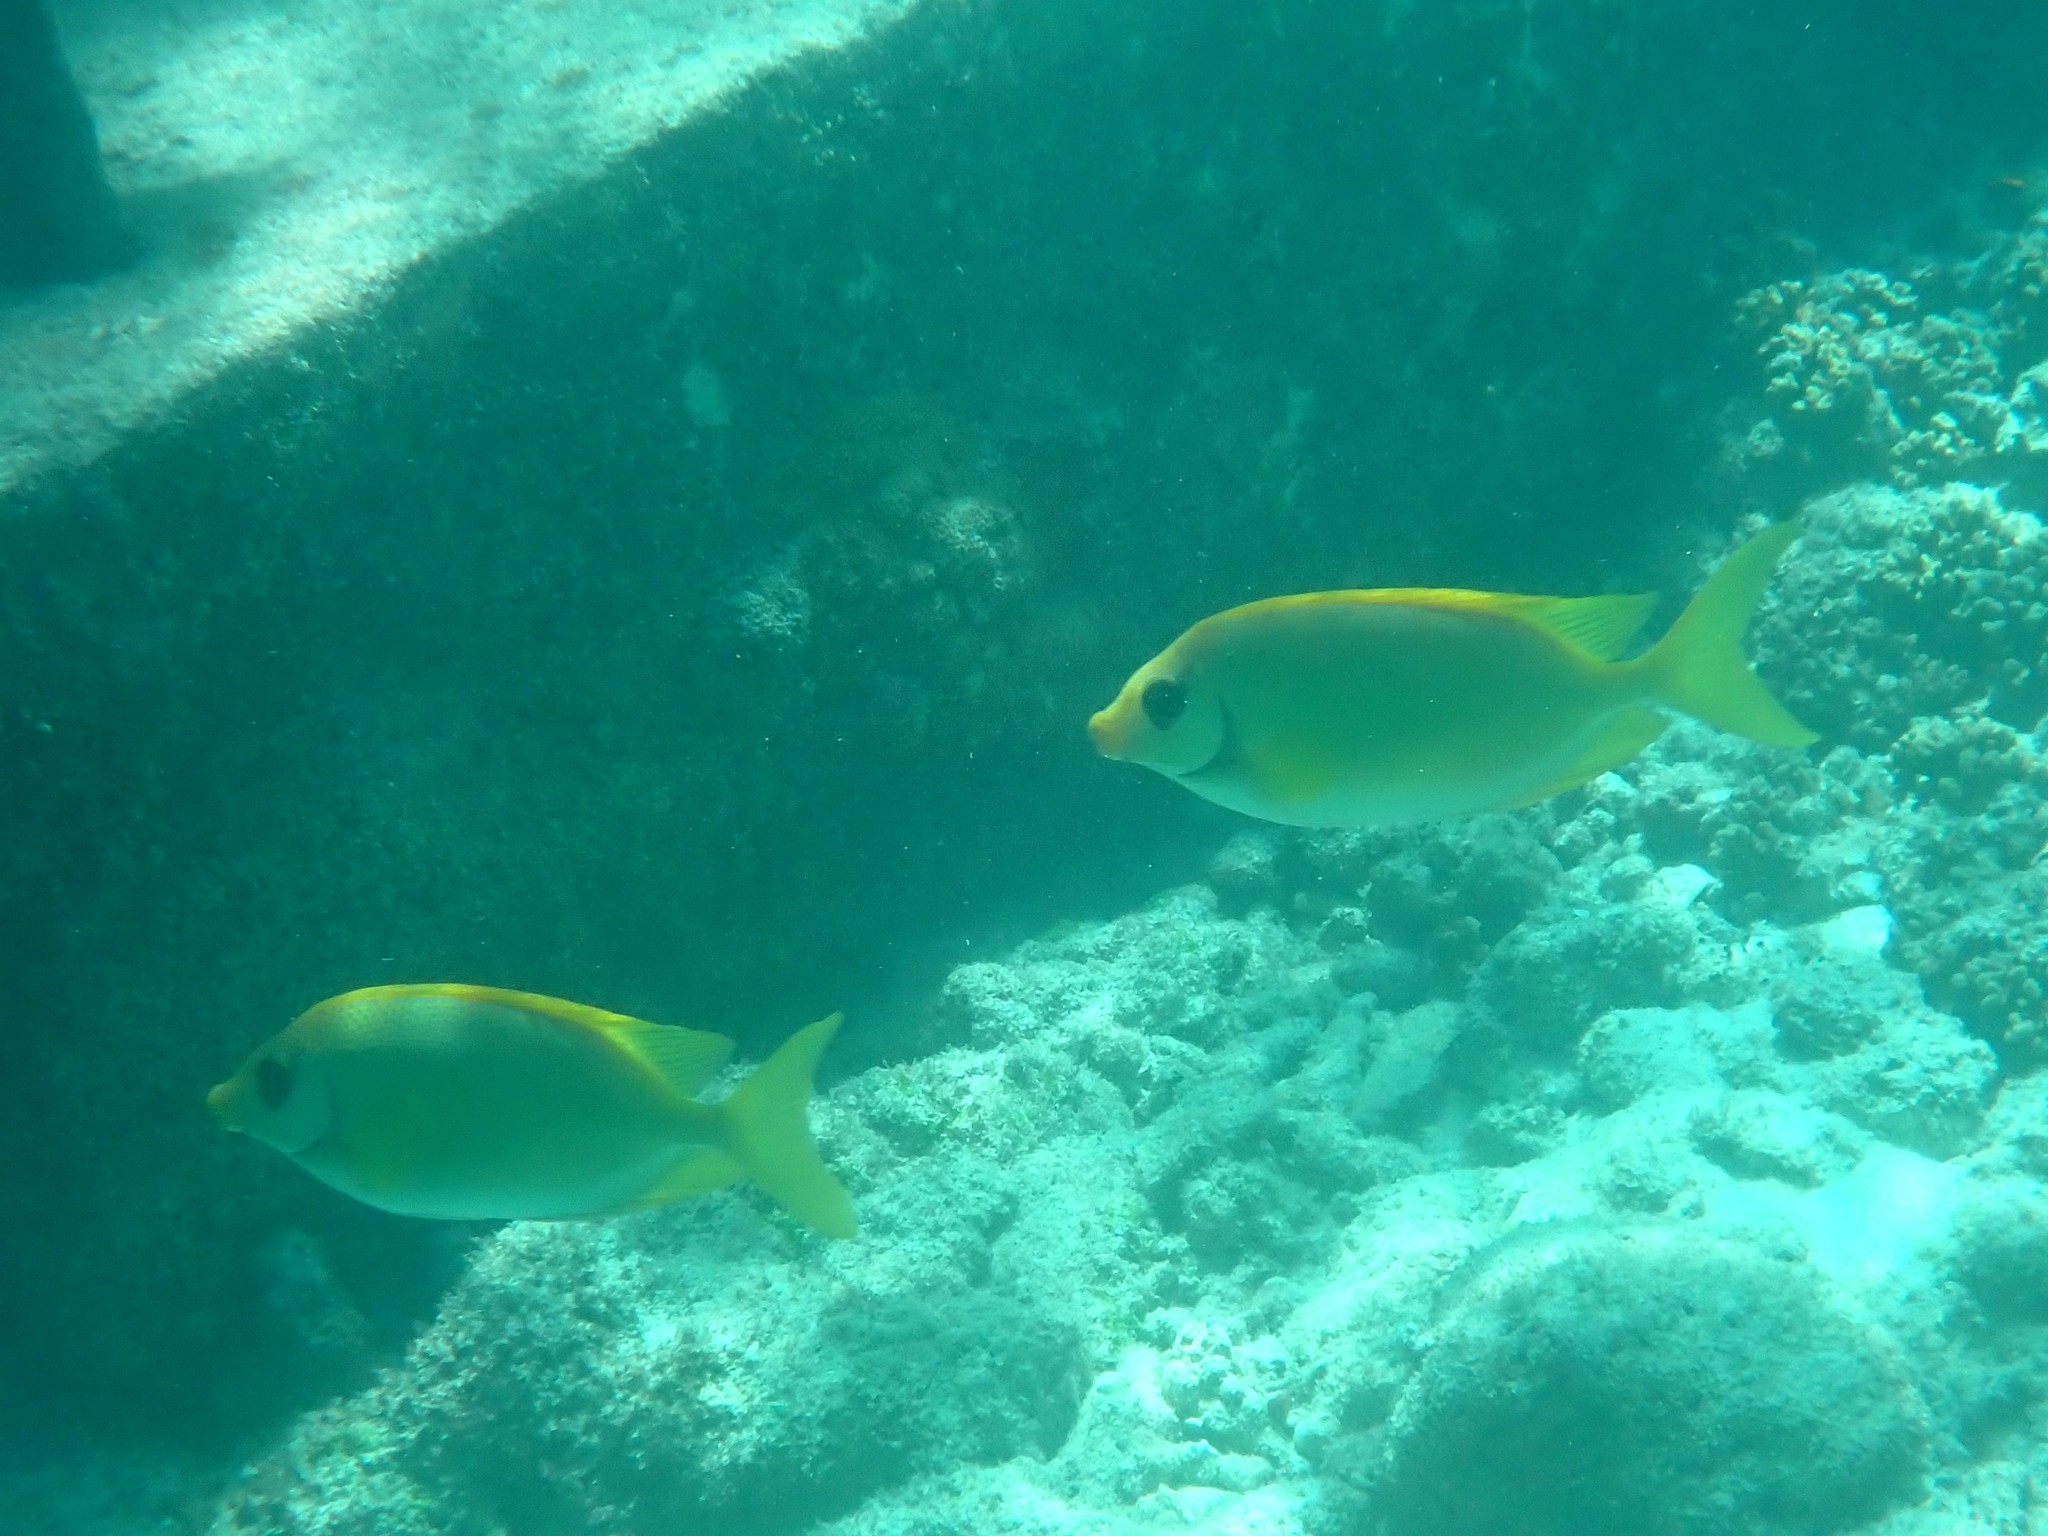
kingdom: Animalia
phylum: Chordata
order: Perciformes
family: Siganidae
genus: Siganus
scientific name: Siganus corallinus
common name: Coral rabbitfish
